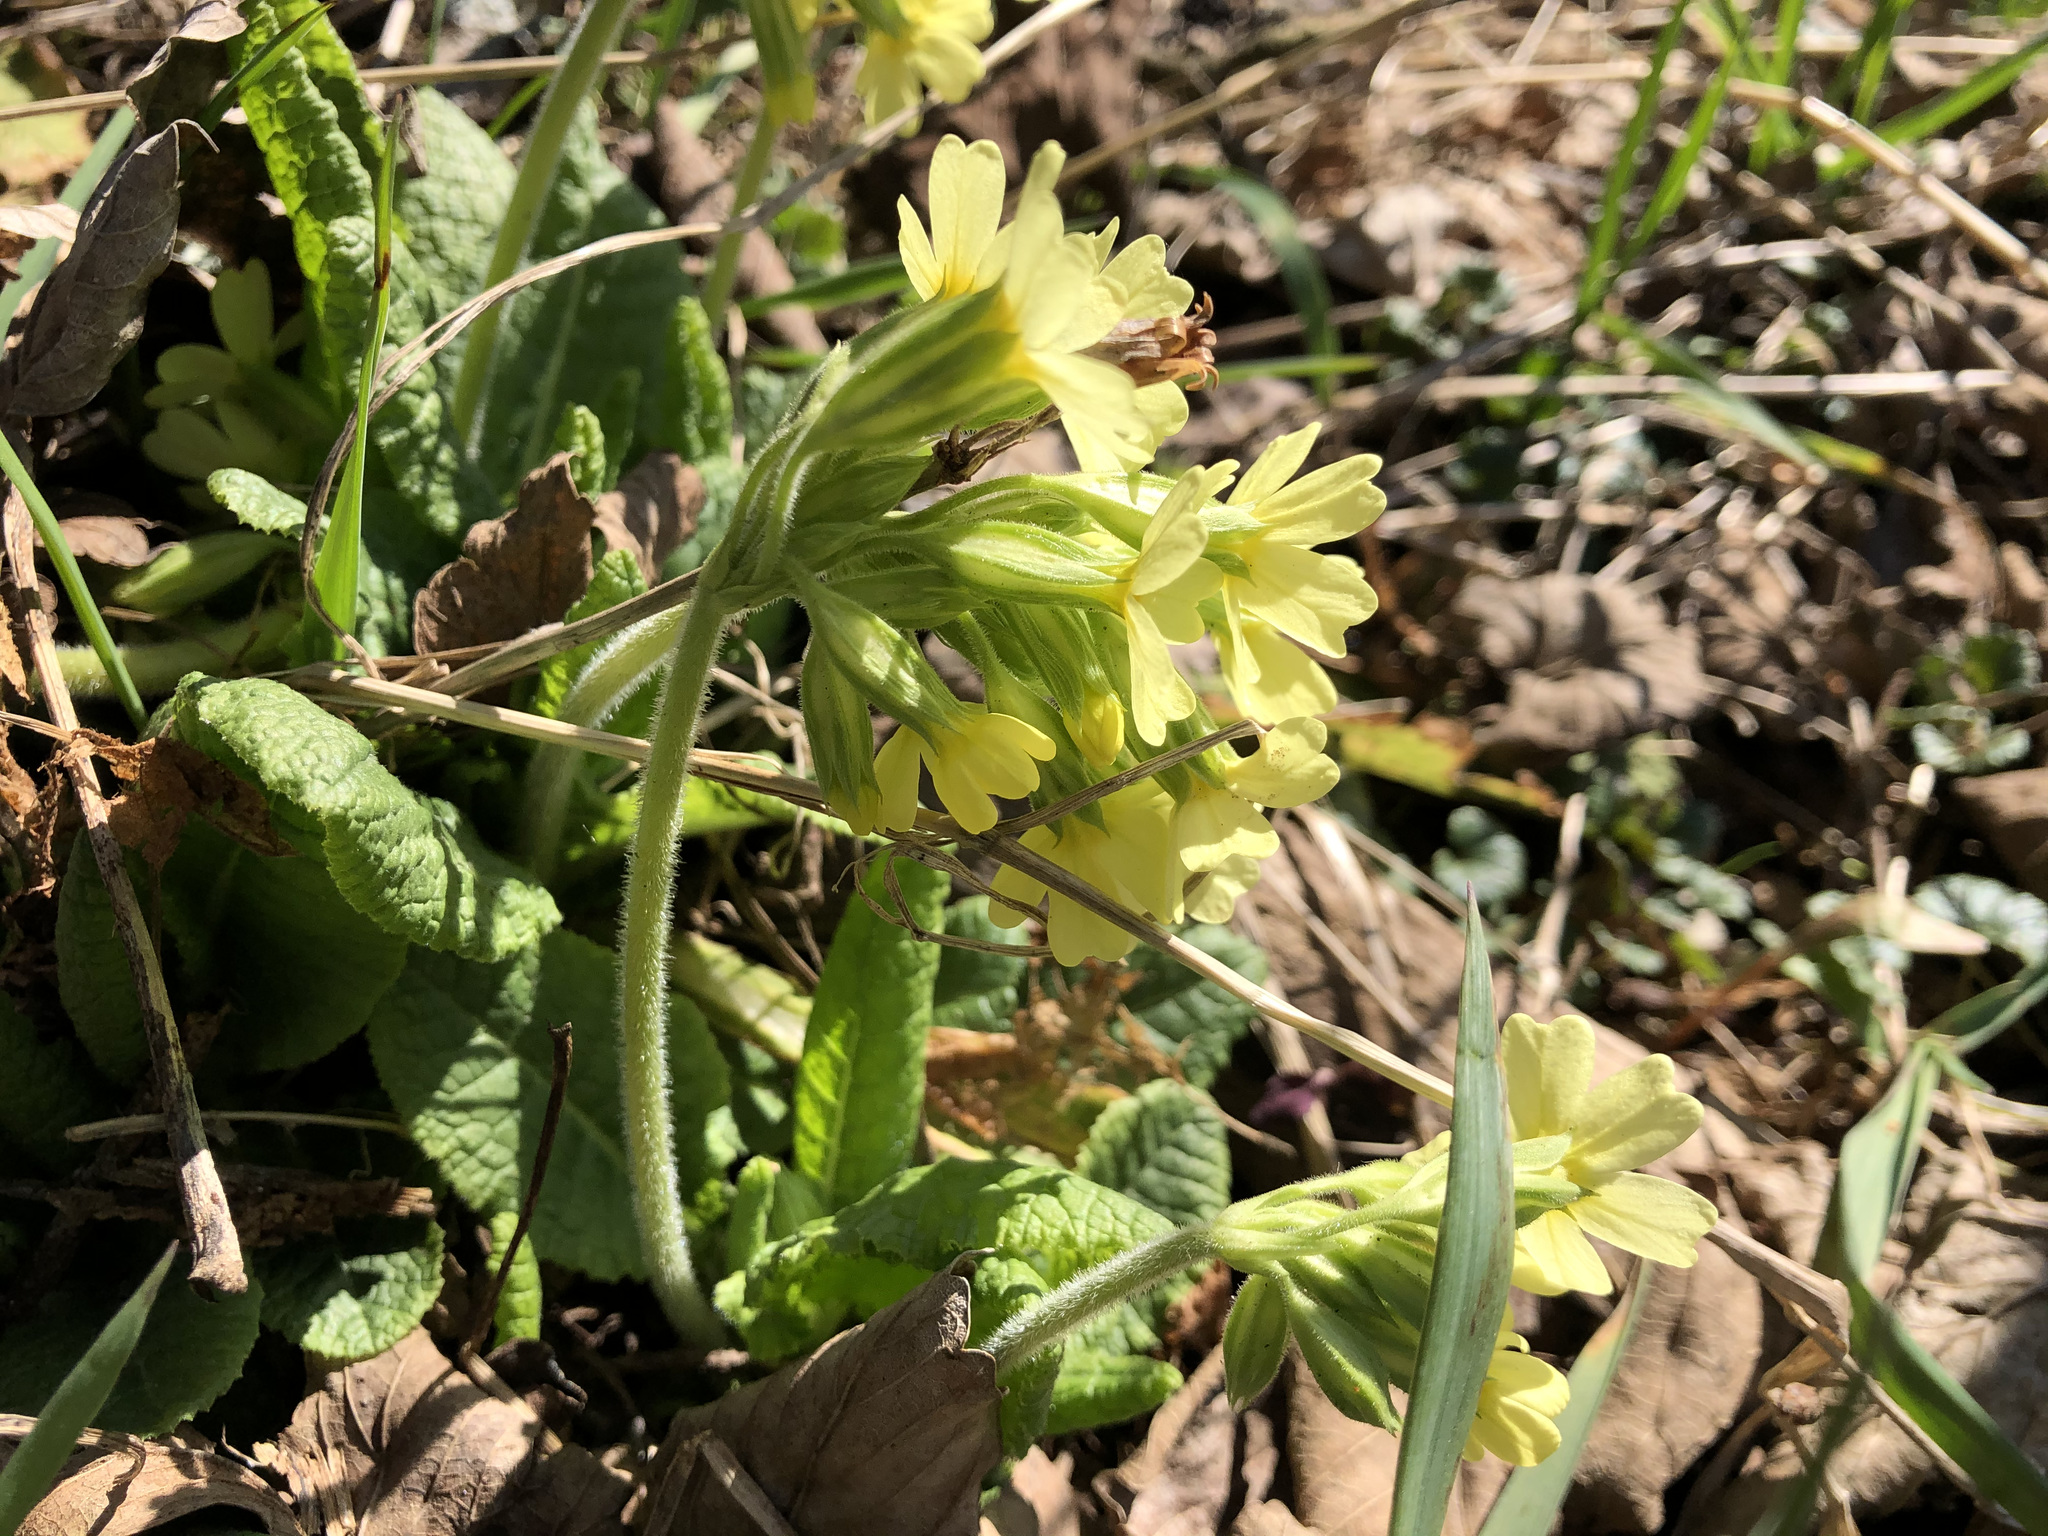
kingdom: Plantae
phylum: Tracheophyta
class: Magnoliopsida
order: Ericales
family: Primulaceae
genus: Primula
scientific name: Primula elatior
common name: Oxlip
